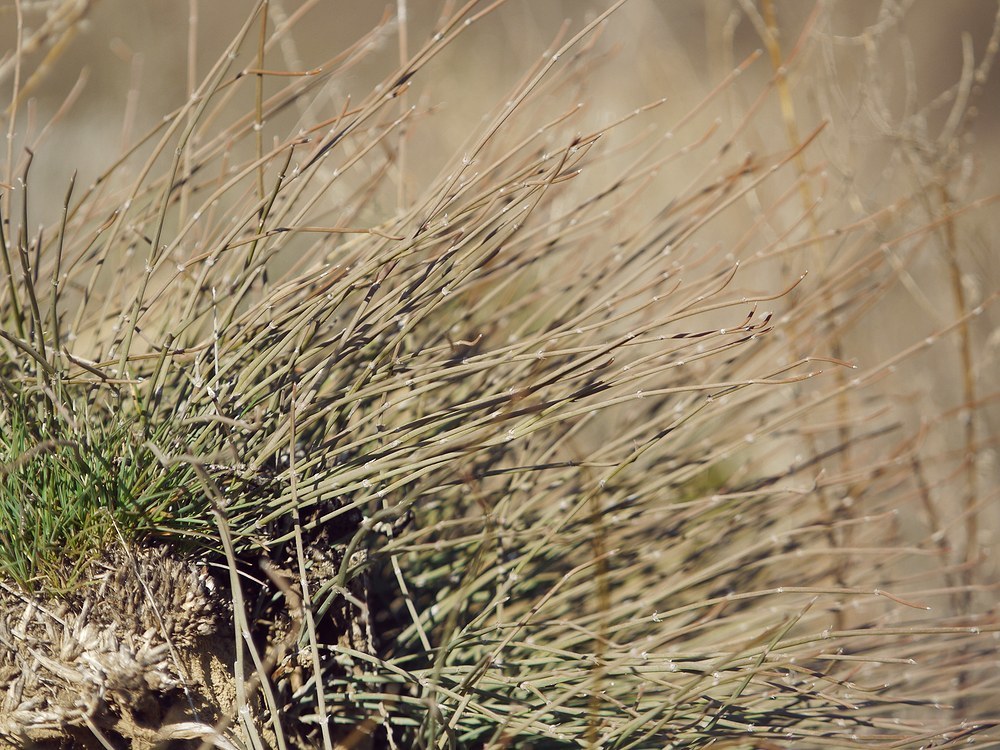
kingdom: Plantae
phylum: Tracheophyta
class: Gnetopsida
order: Ephedrales
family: Ephedraceae
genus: Ephedra
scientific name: Ephedra distachya
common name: Sea grape
